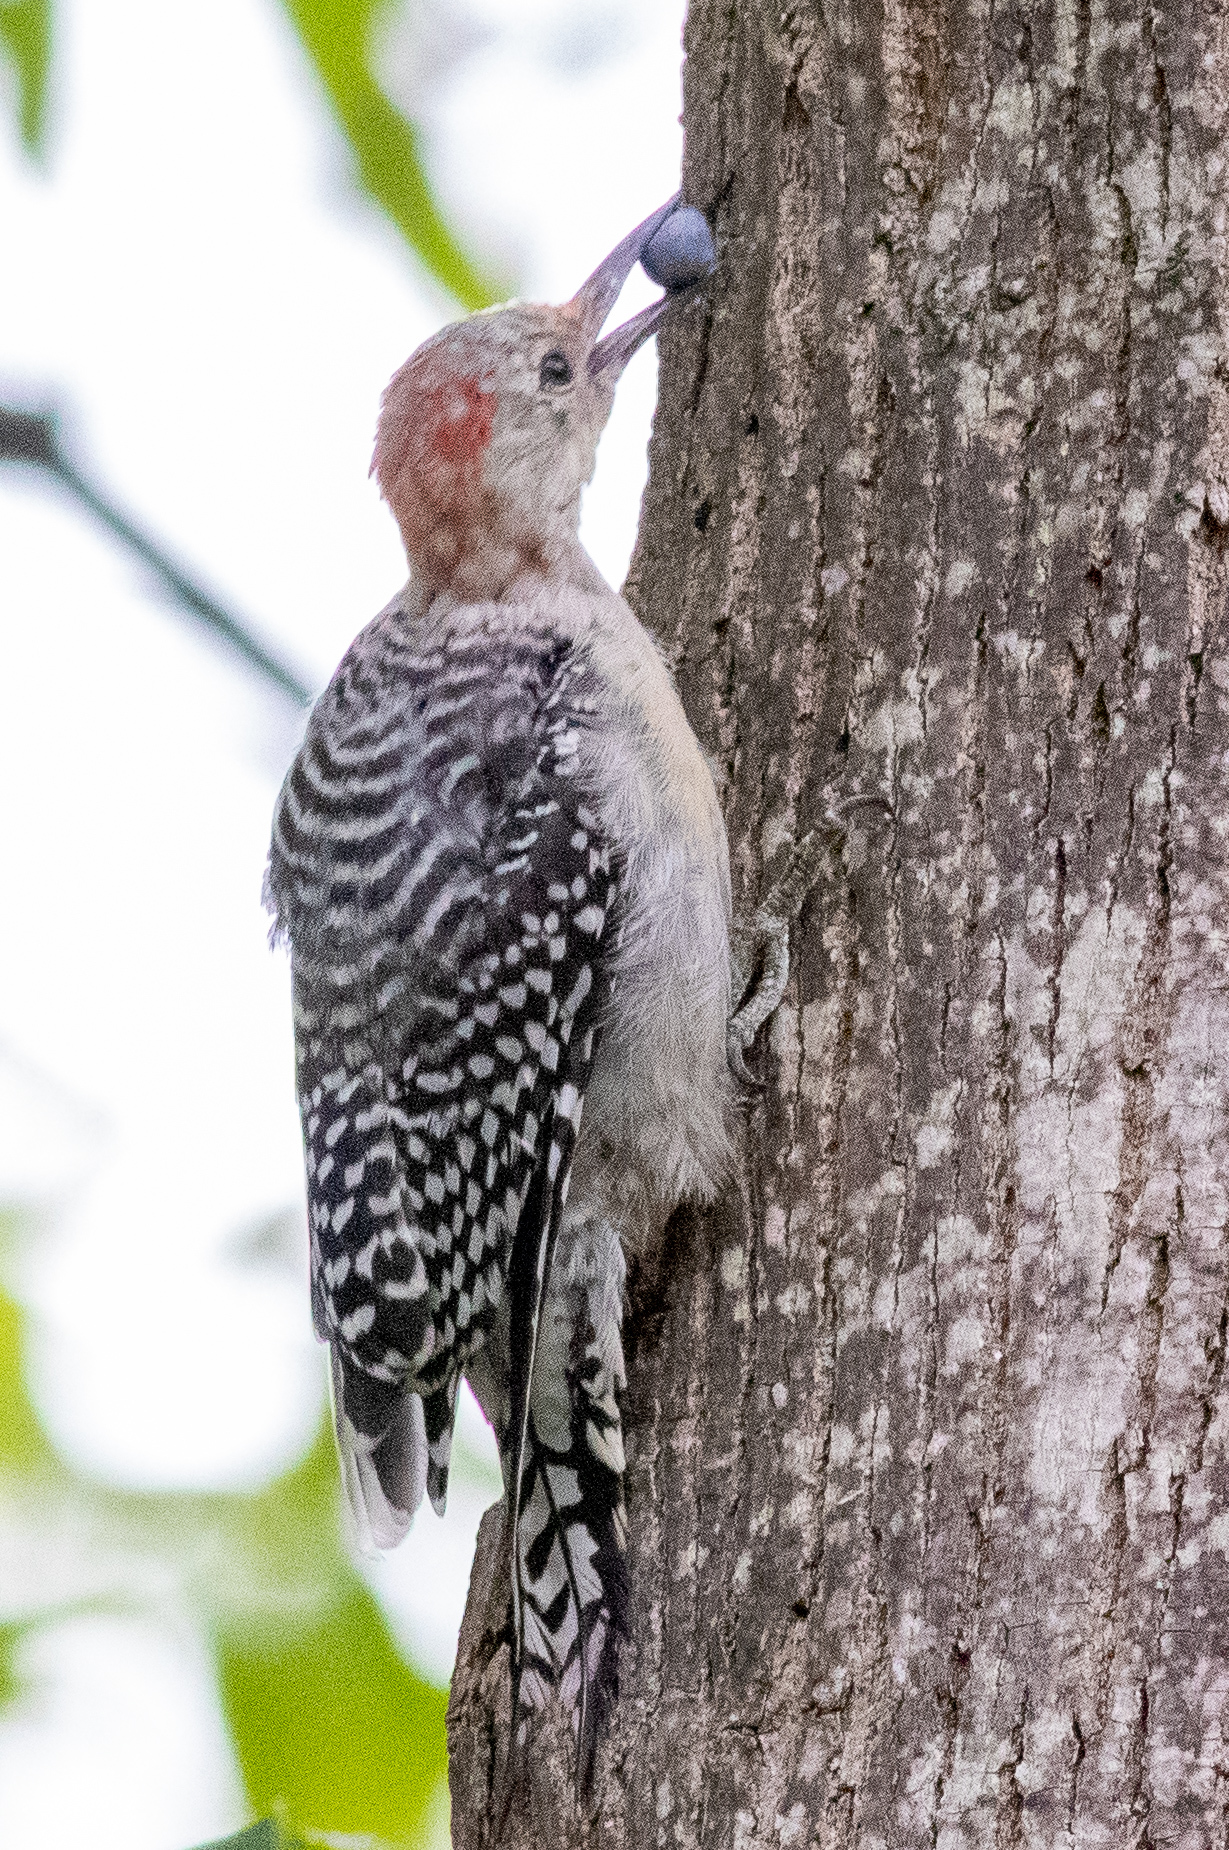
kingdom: Animalia
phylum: Chordata
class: Aves
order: Piciformes
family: Picidae
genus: Melanerpes
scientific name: Melanerpes carolinus
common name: Red-bellied woodpecker
